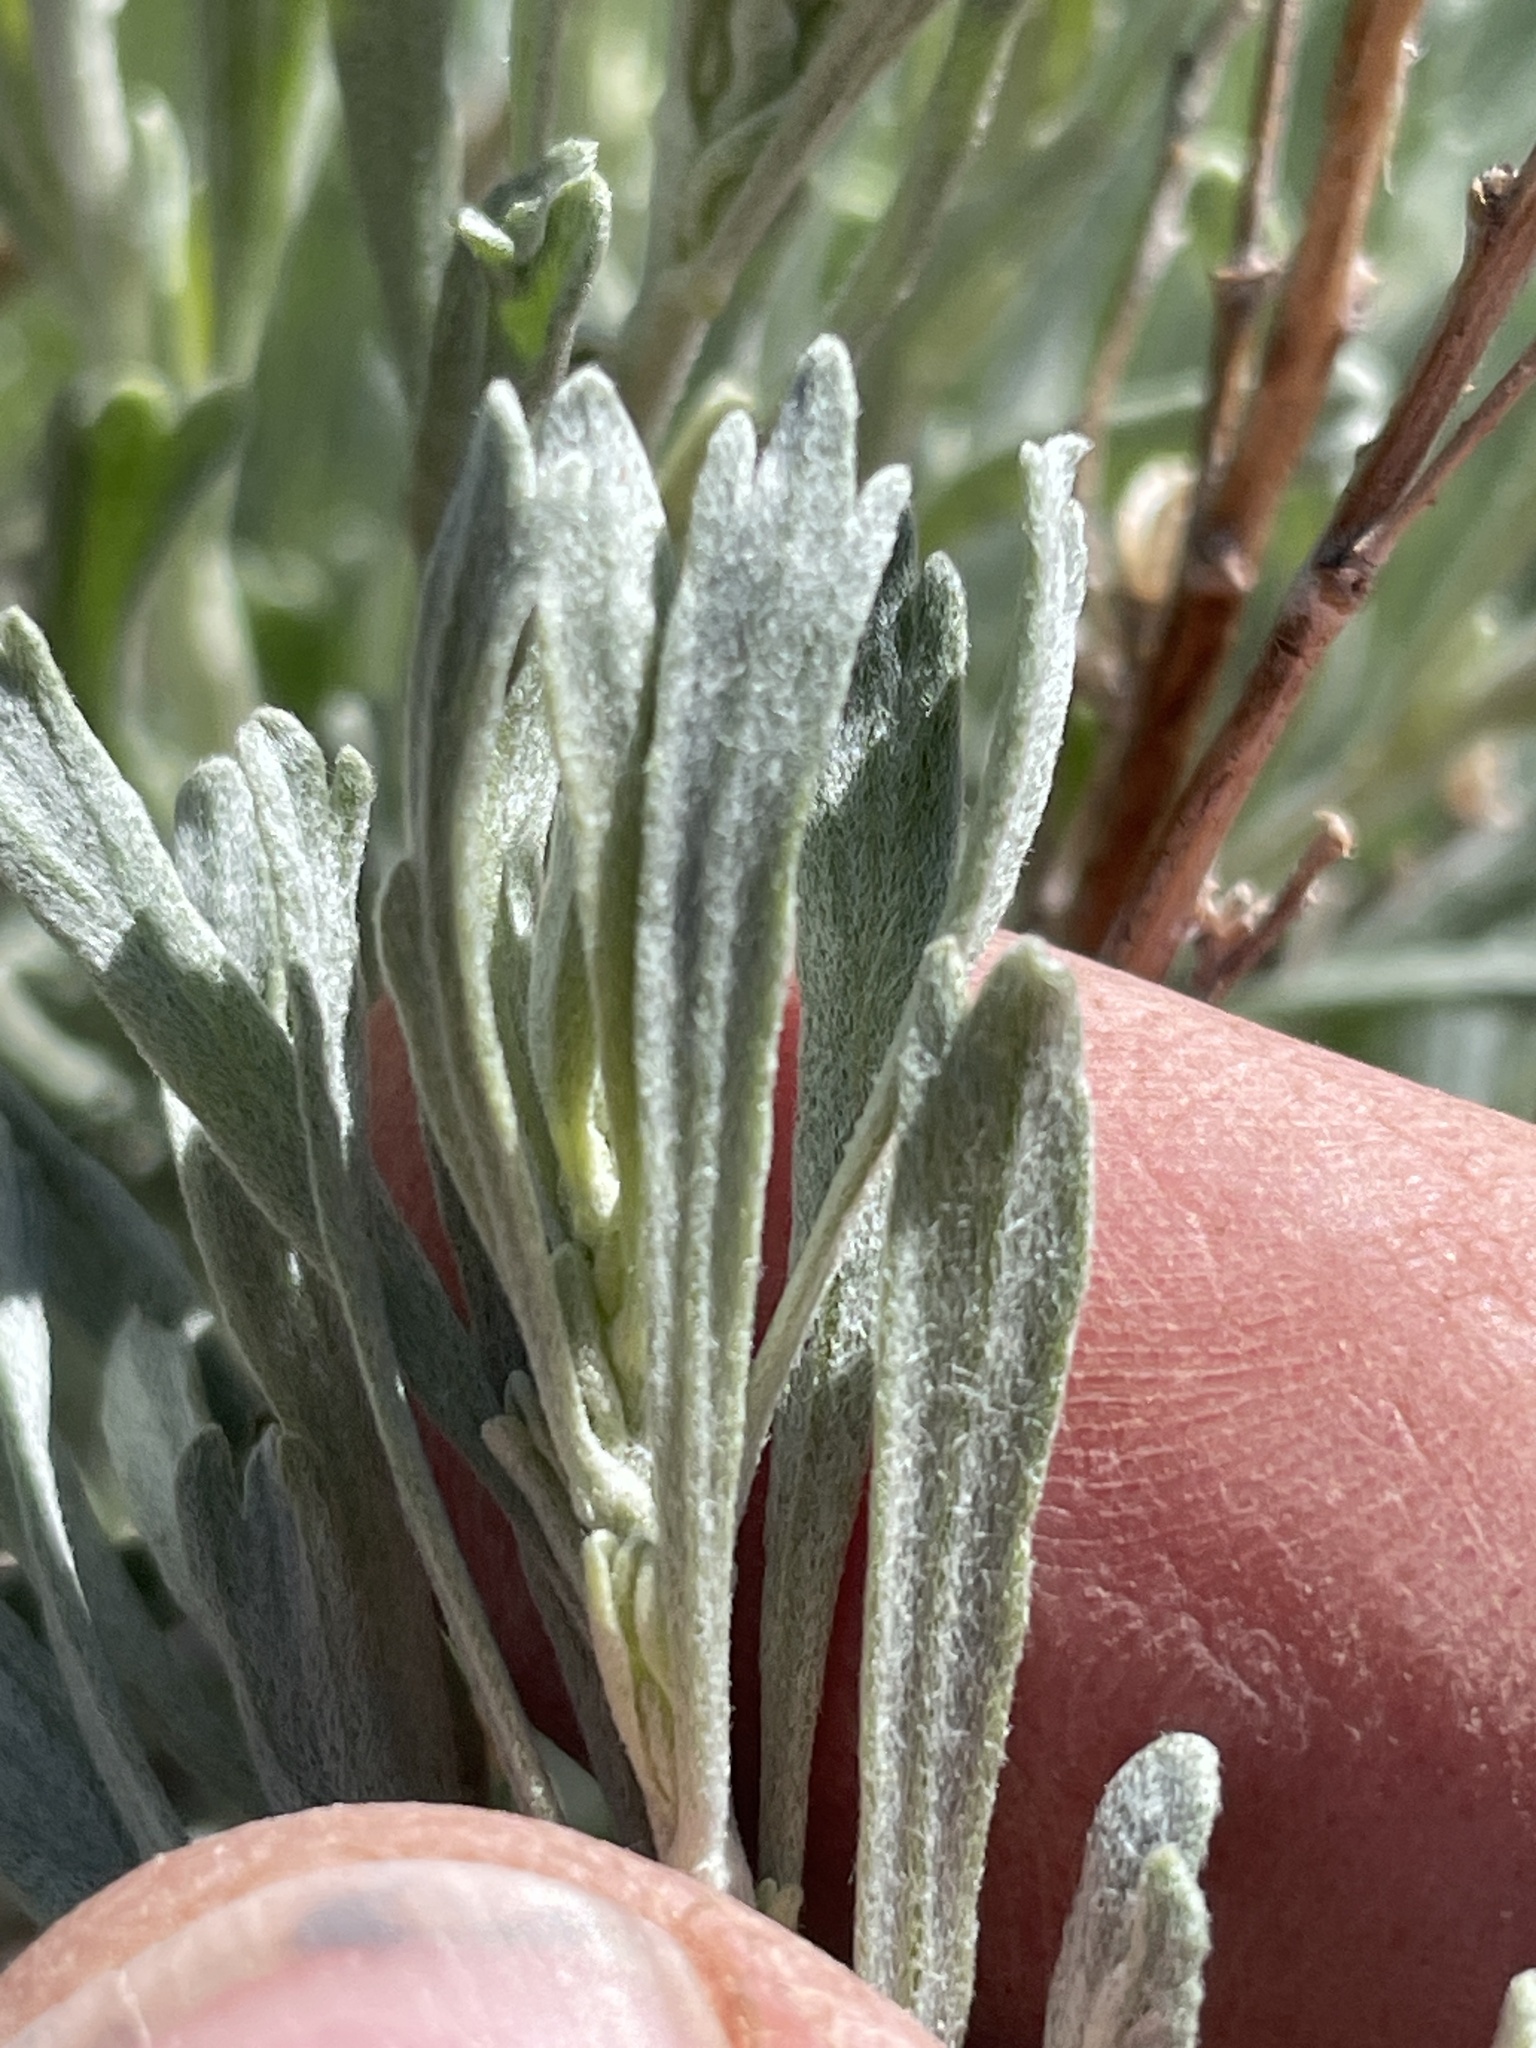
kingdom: Plantae
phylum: Tracheophyta
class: Magnoliopsida
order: Asterales
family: Asteraceae
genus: Artemisia
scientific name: Artemisia tridentata
